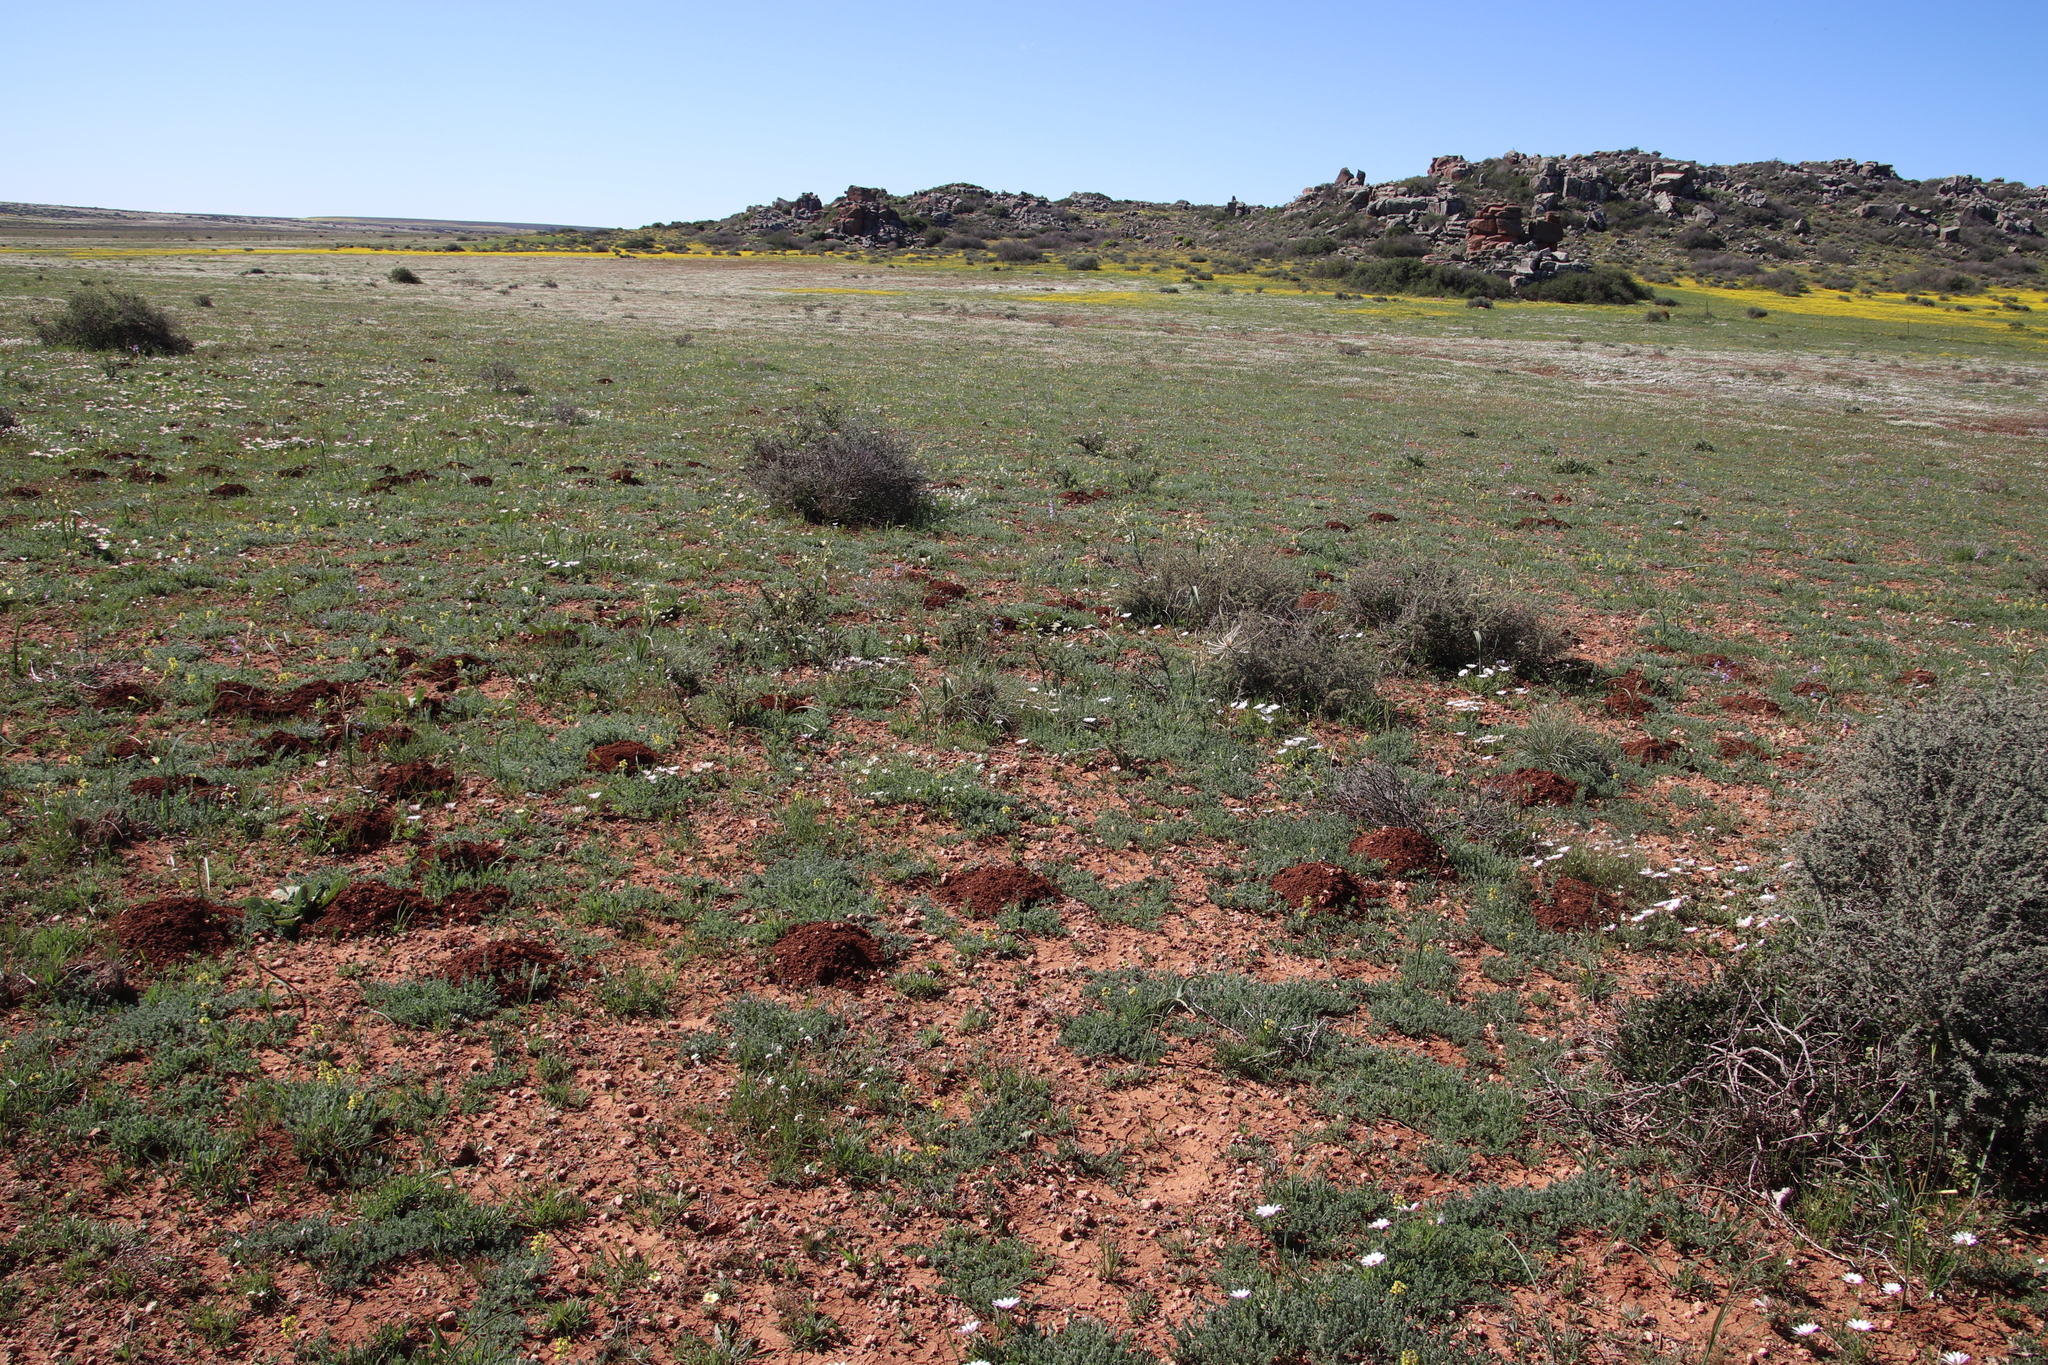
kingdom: Animalia
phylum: Chordata
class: Mammalia
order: Rodentia
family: Bathyergidae
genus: Cryptomys
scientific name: Cryptomys hottentotus
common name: Southern african mole-rat
